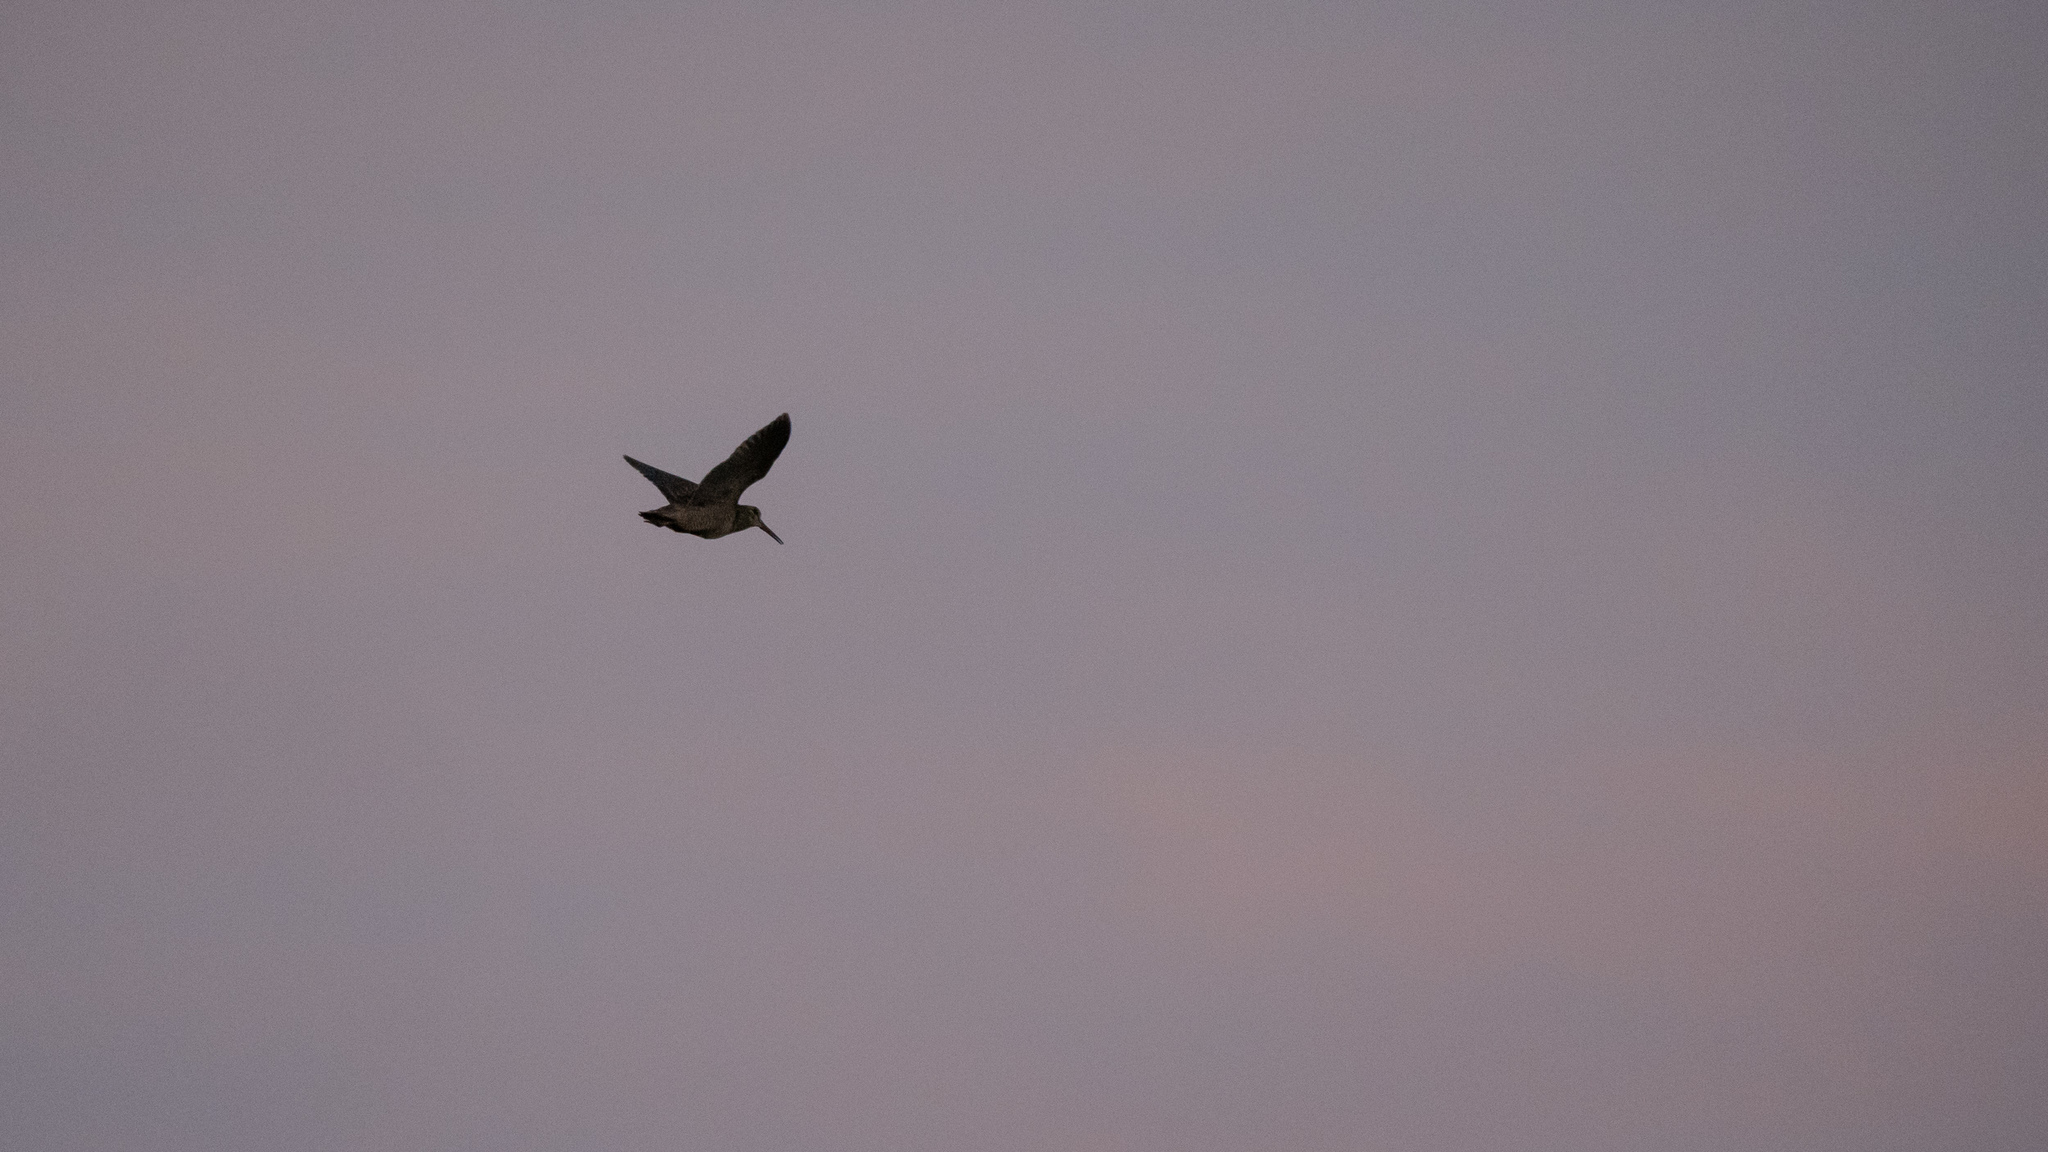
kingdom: Animalia
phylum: Chordata
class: Aves
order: Charadriiformes
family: Scolopacidae
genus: Scolopax
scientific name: Scolopax rusticola
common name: Eurasian woodcock
